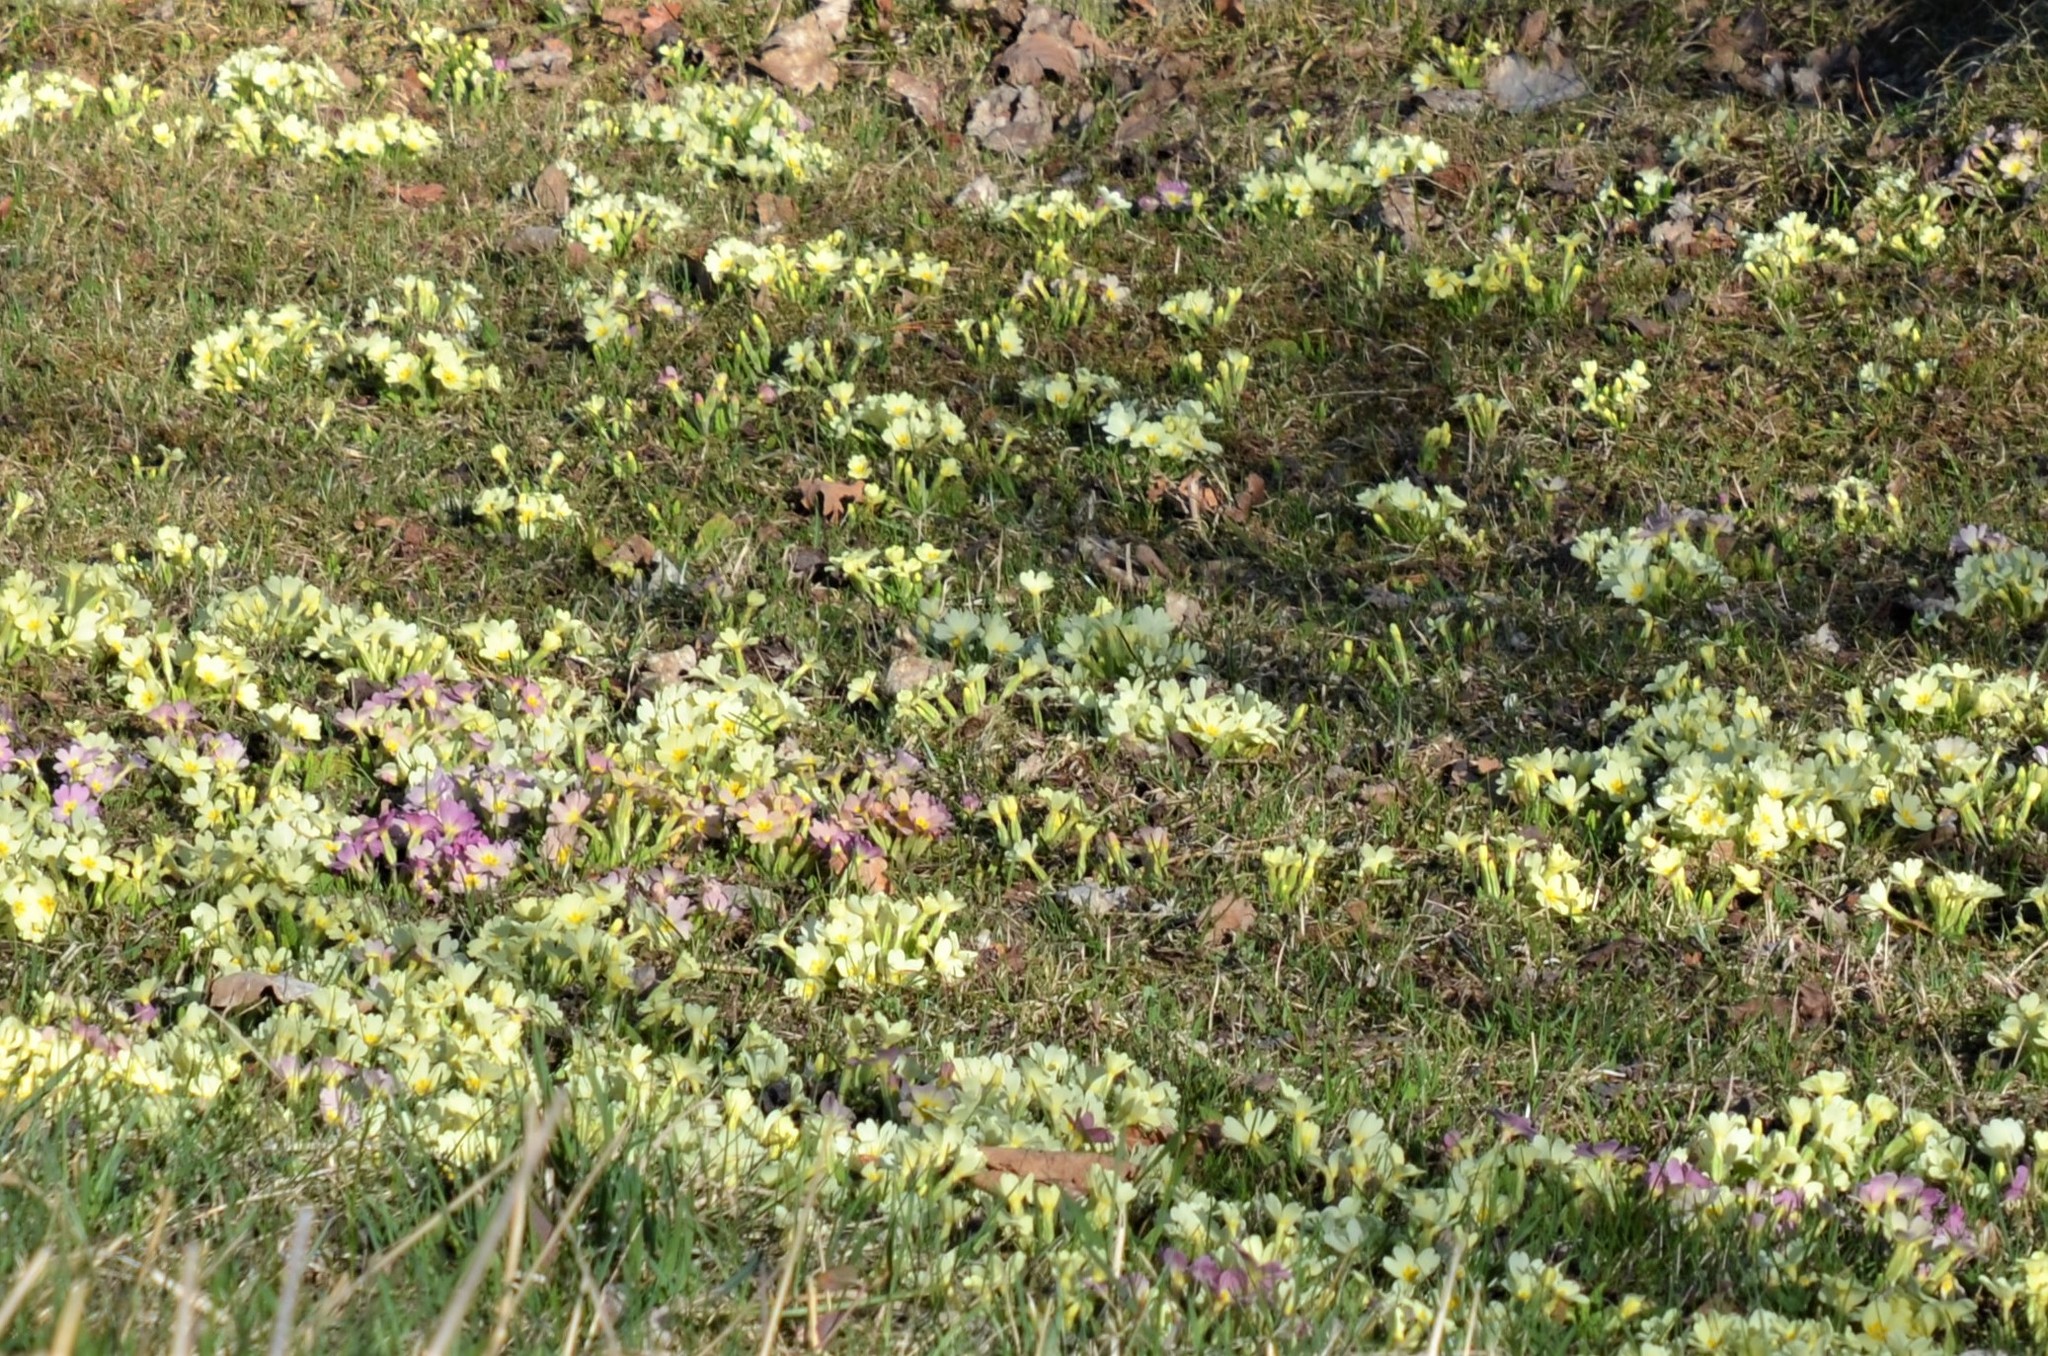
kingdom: Plantae
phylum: Tracheophyta
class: Magnoliopsida
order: Ericales
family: Primulaceae
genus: Primula
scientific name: Primula vulgaris
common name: Primrose
